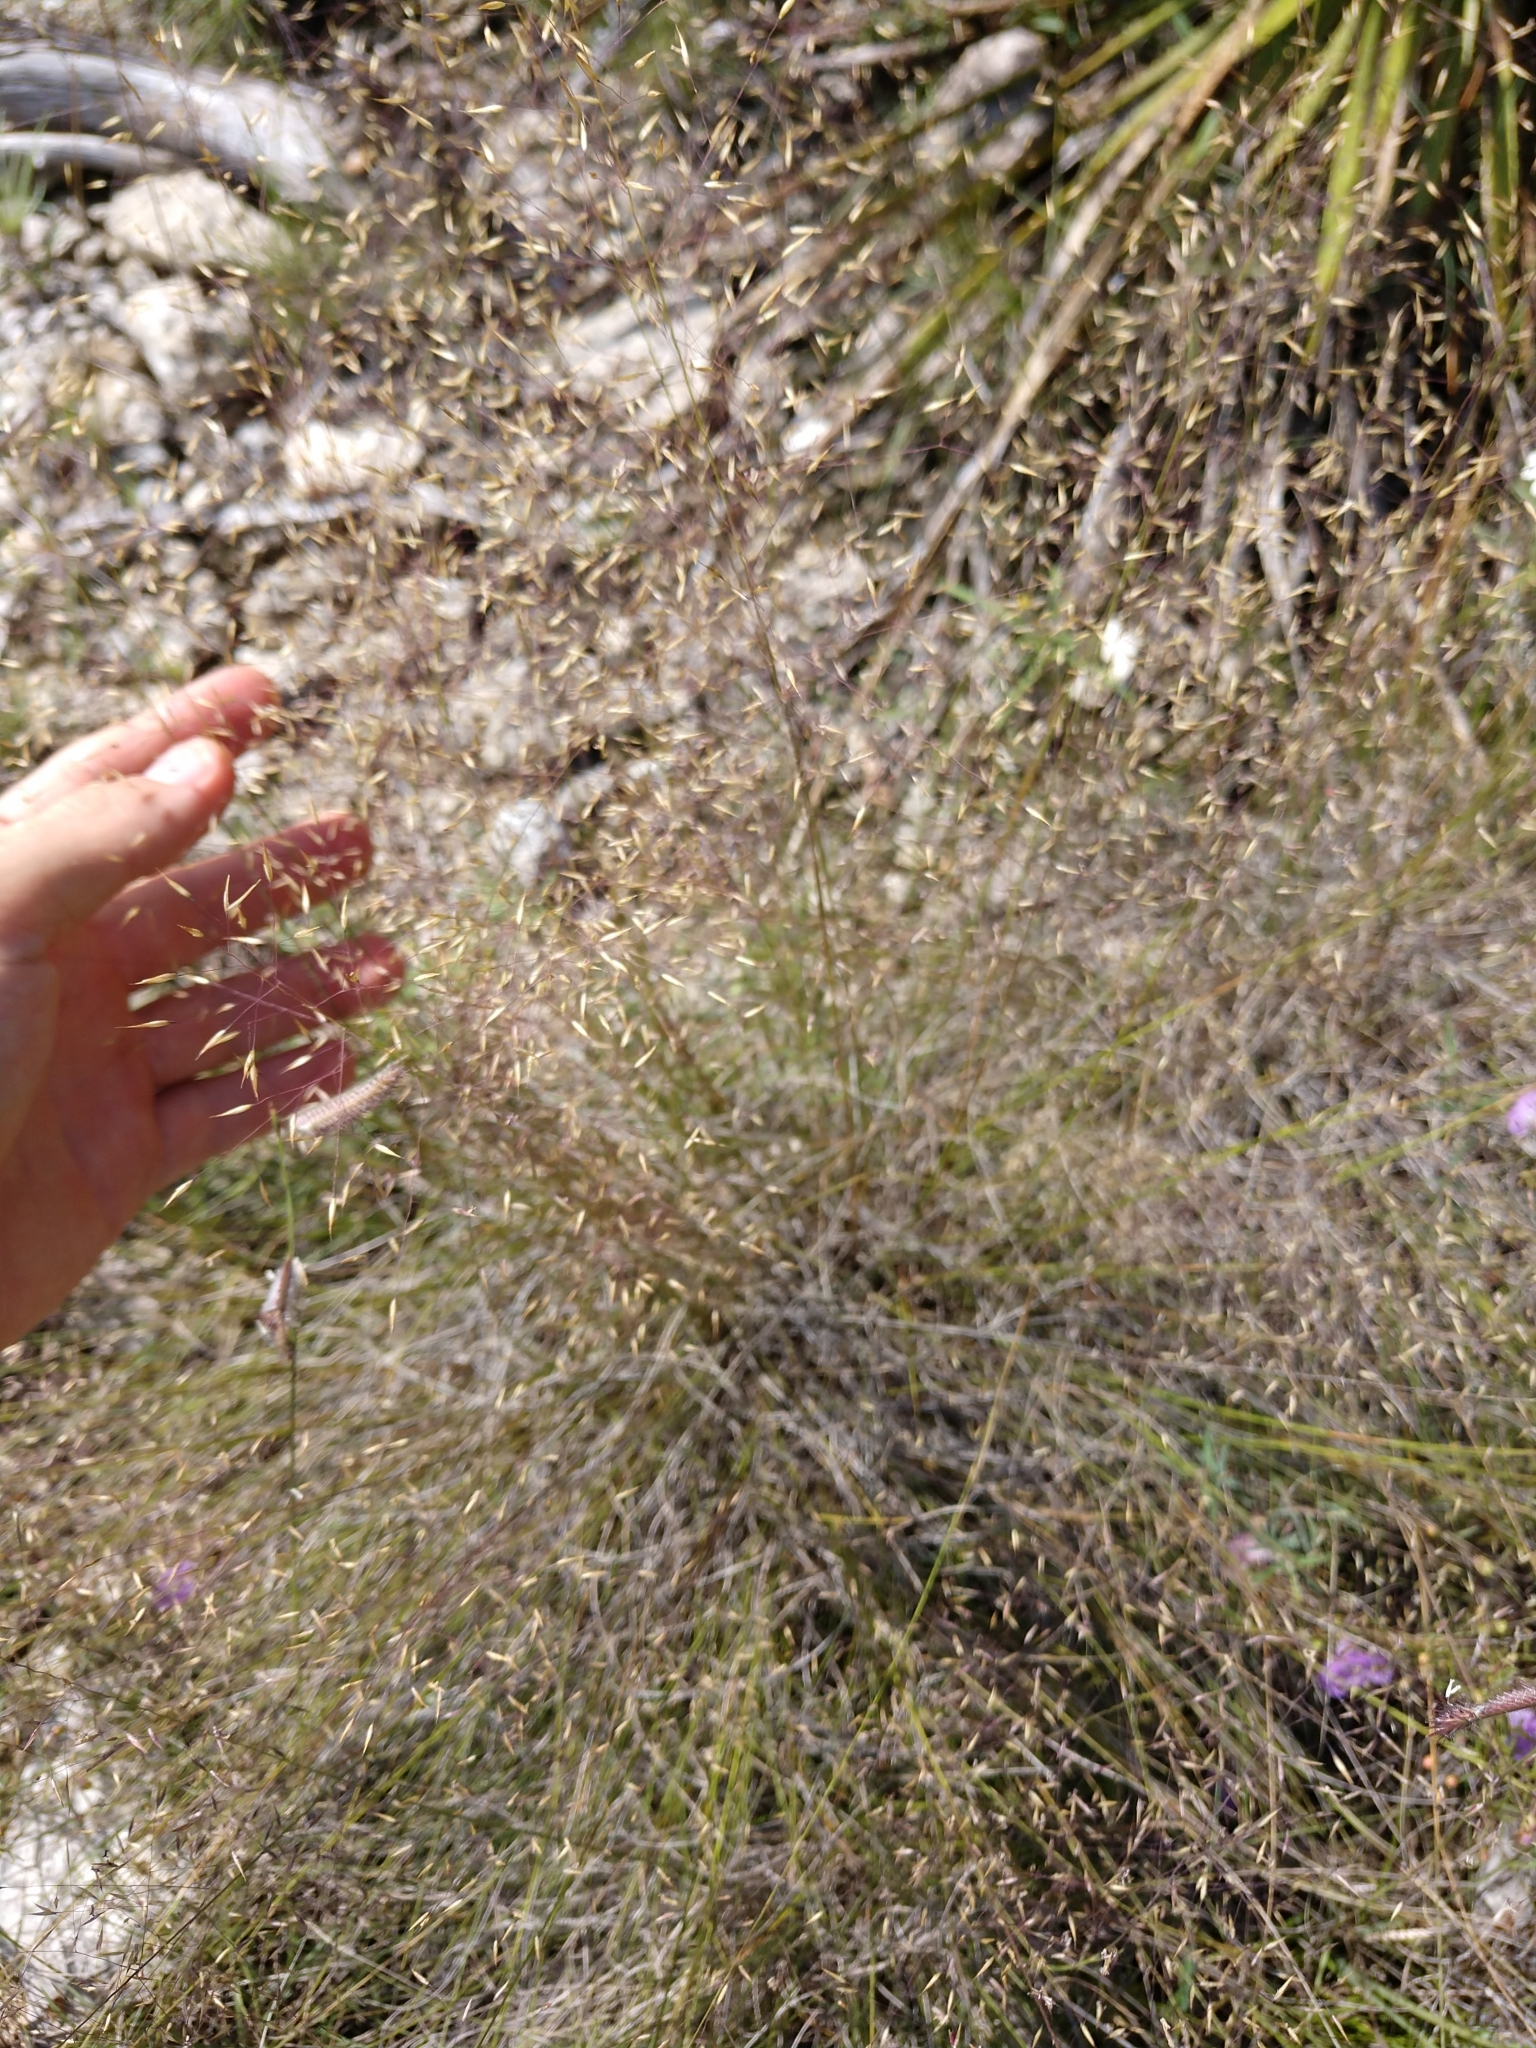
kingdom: Plantae
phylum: Tracheophyta
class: Liliopsida
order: Poales
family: Poaceae
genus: Muhlenbergia
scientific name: Muhlenbergia reverchonii
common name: Seep muhly
